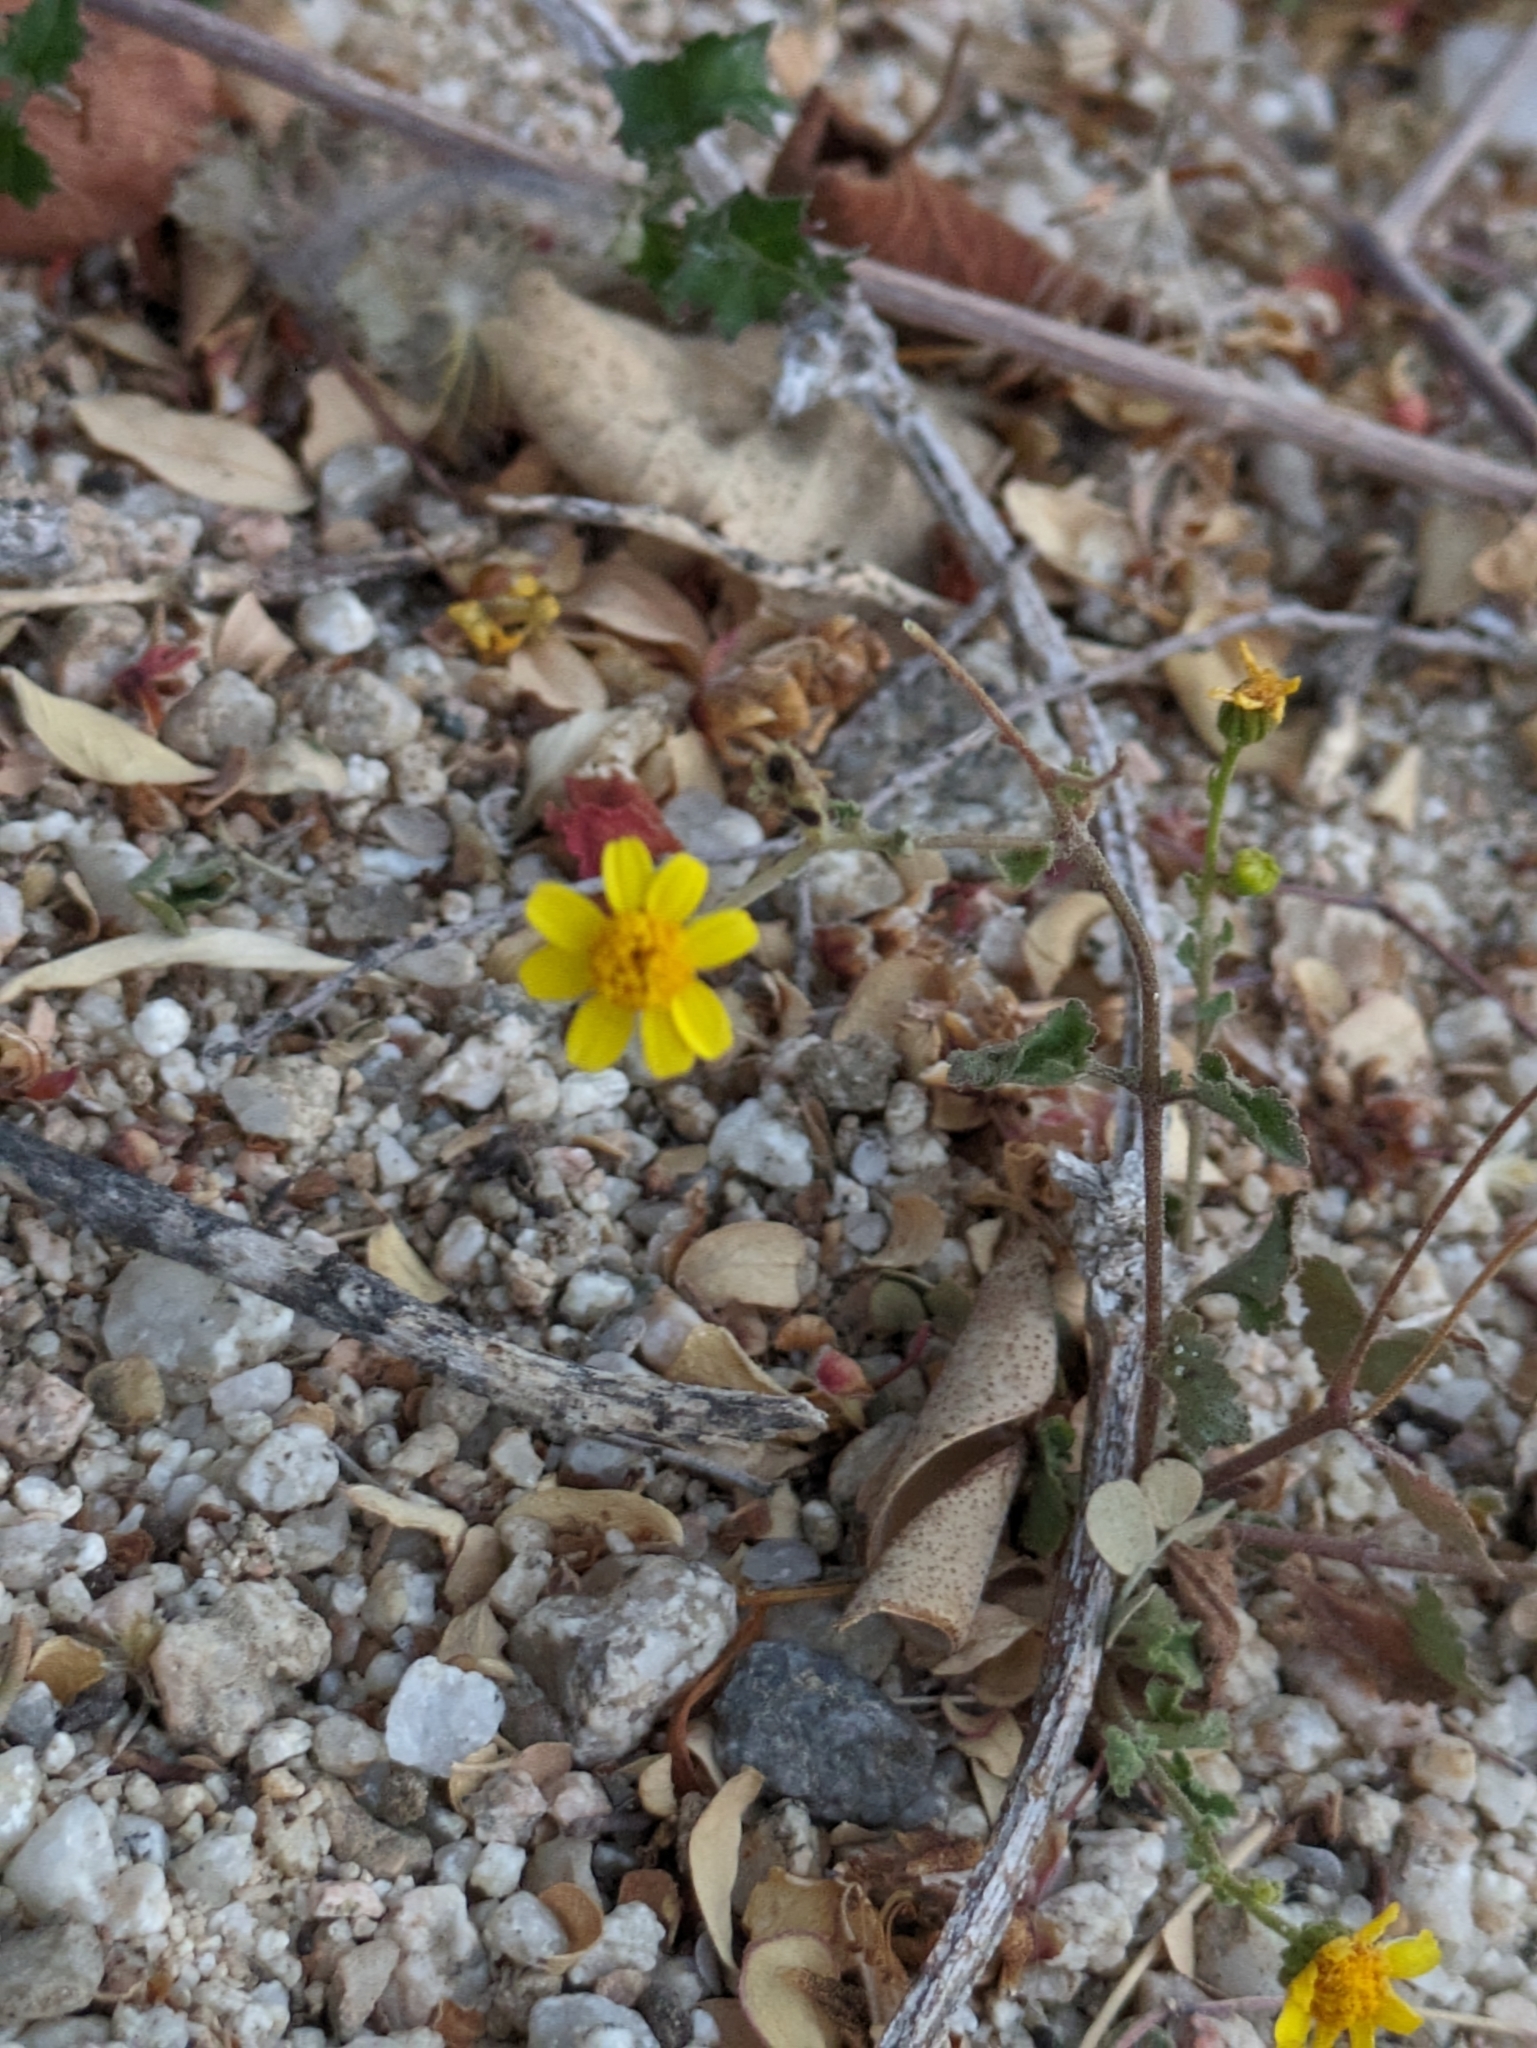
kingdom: Plantae
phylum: Tracheophyta
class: Magnoliopsida
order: Asterales
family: Asteraceae
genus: Perityle
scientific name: Perityle cuneata
